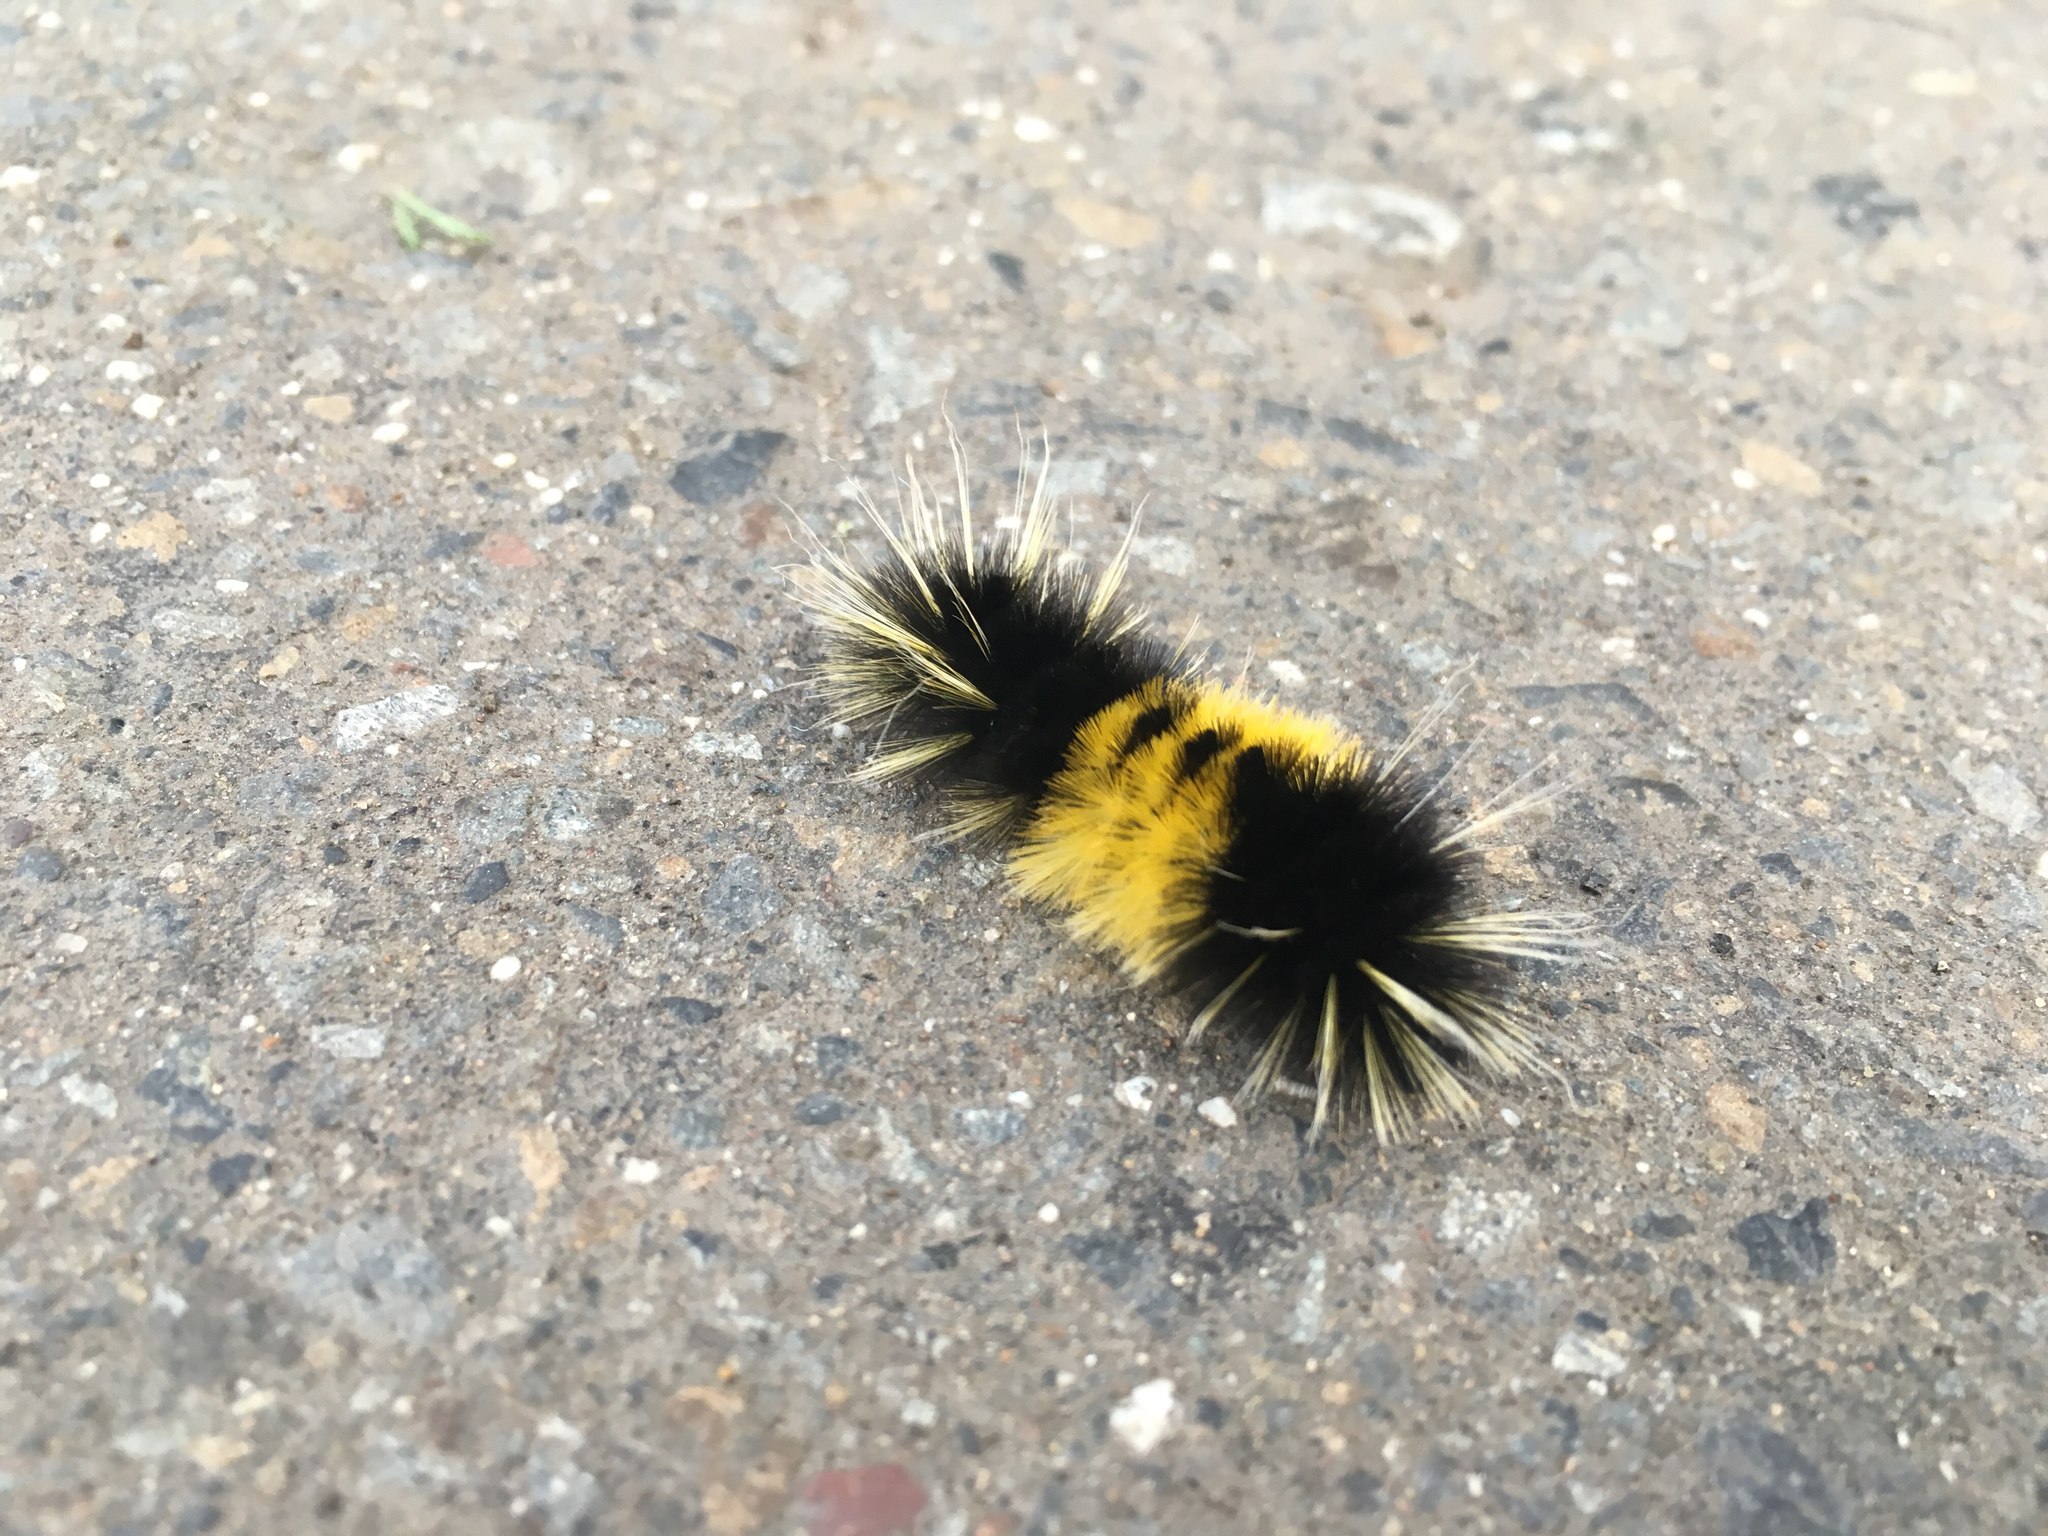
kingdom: Animalia
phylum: Arthropoda
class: Insecta
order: Lepidoptera
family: Erebidae
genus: Lophocampa
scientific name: Lophocampa maculata
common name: Spotted tussock moth
